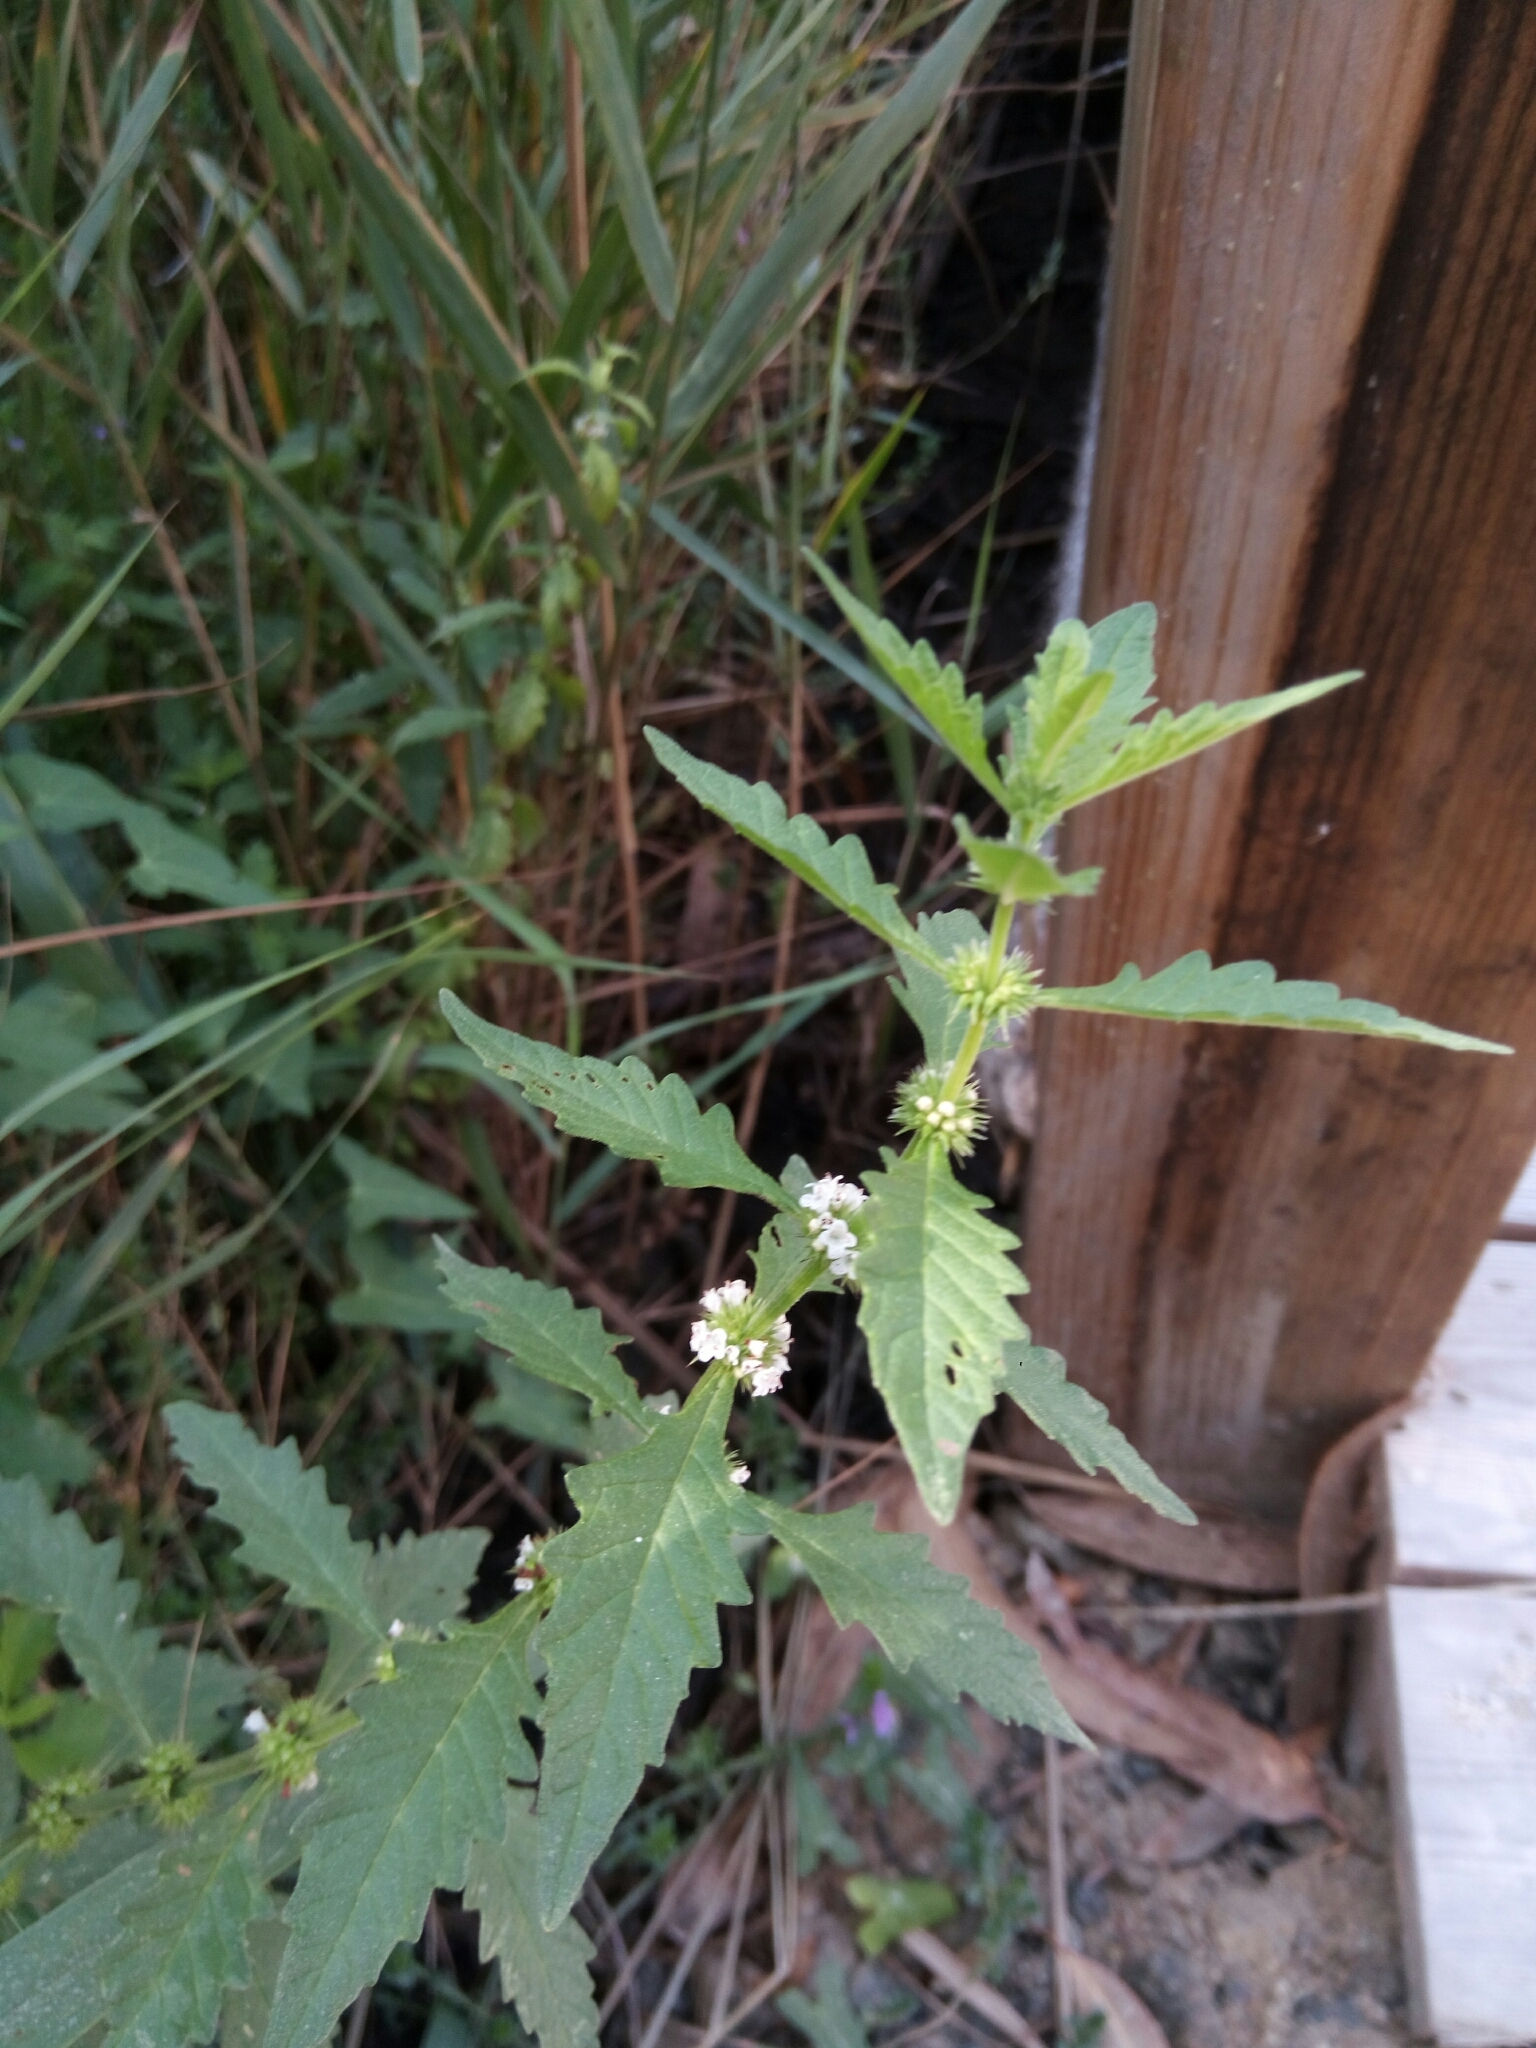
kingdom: Plantae
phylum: Tracheophyta
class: Magnoliopsida
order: Lamiales
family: Lamiaceae
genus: Lycopus
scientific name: Lycopus europaeus
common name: European bugleweed
